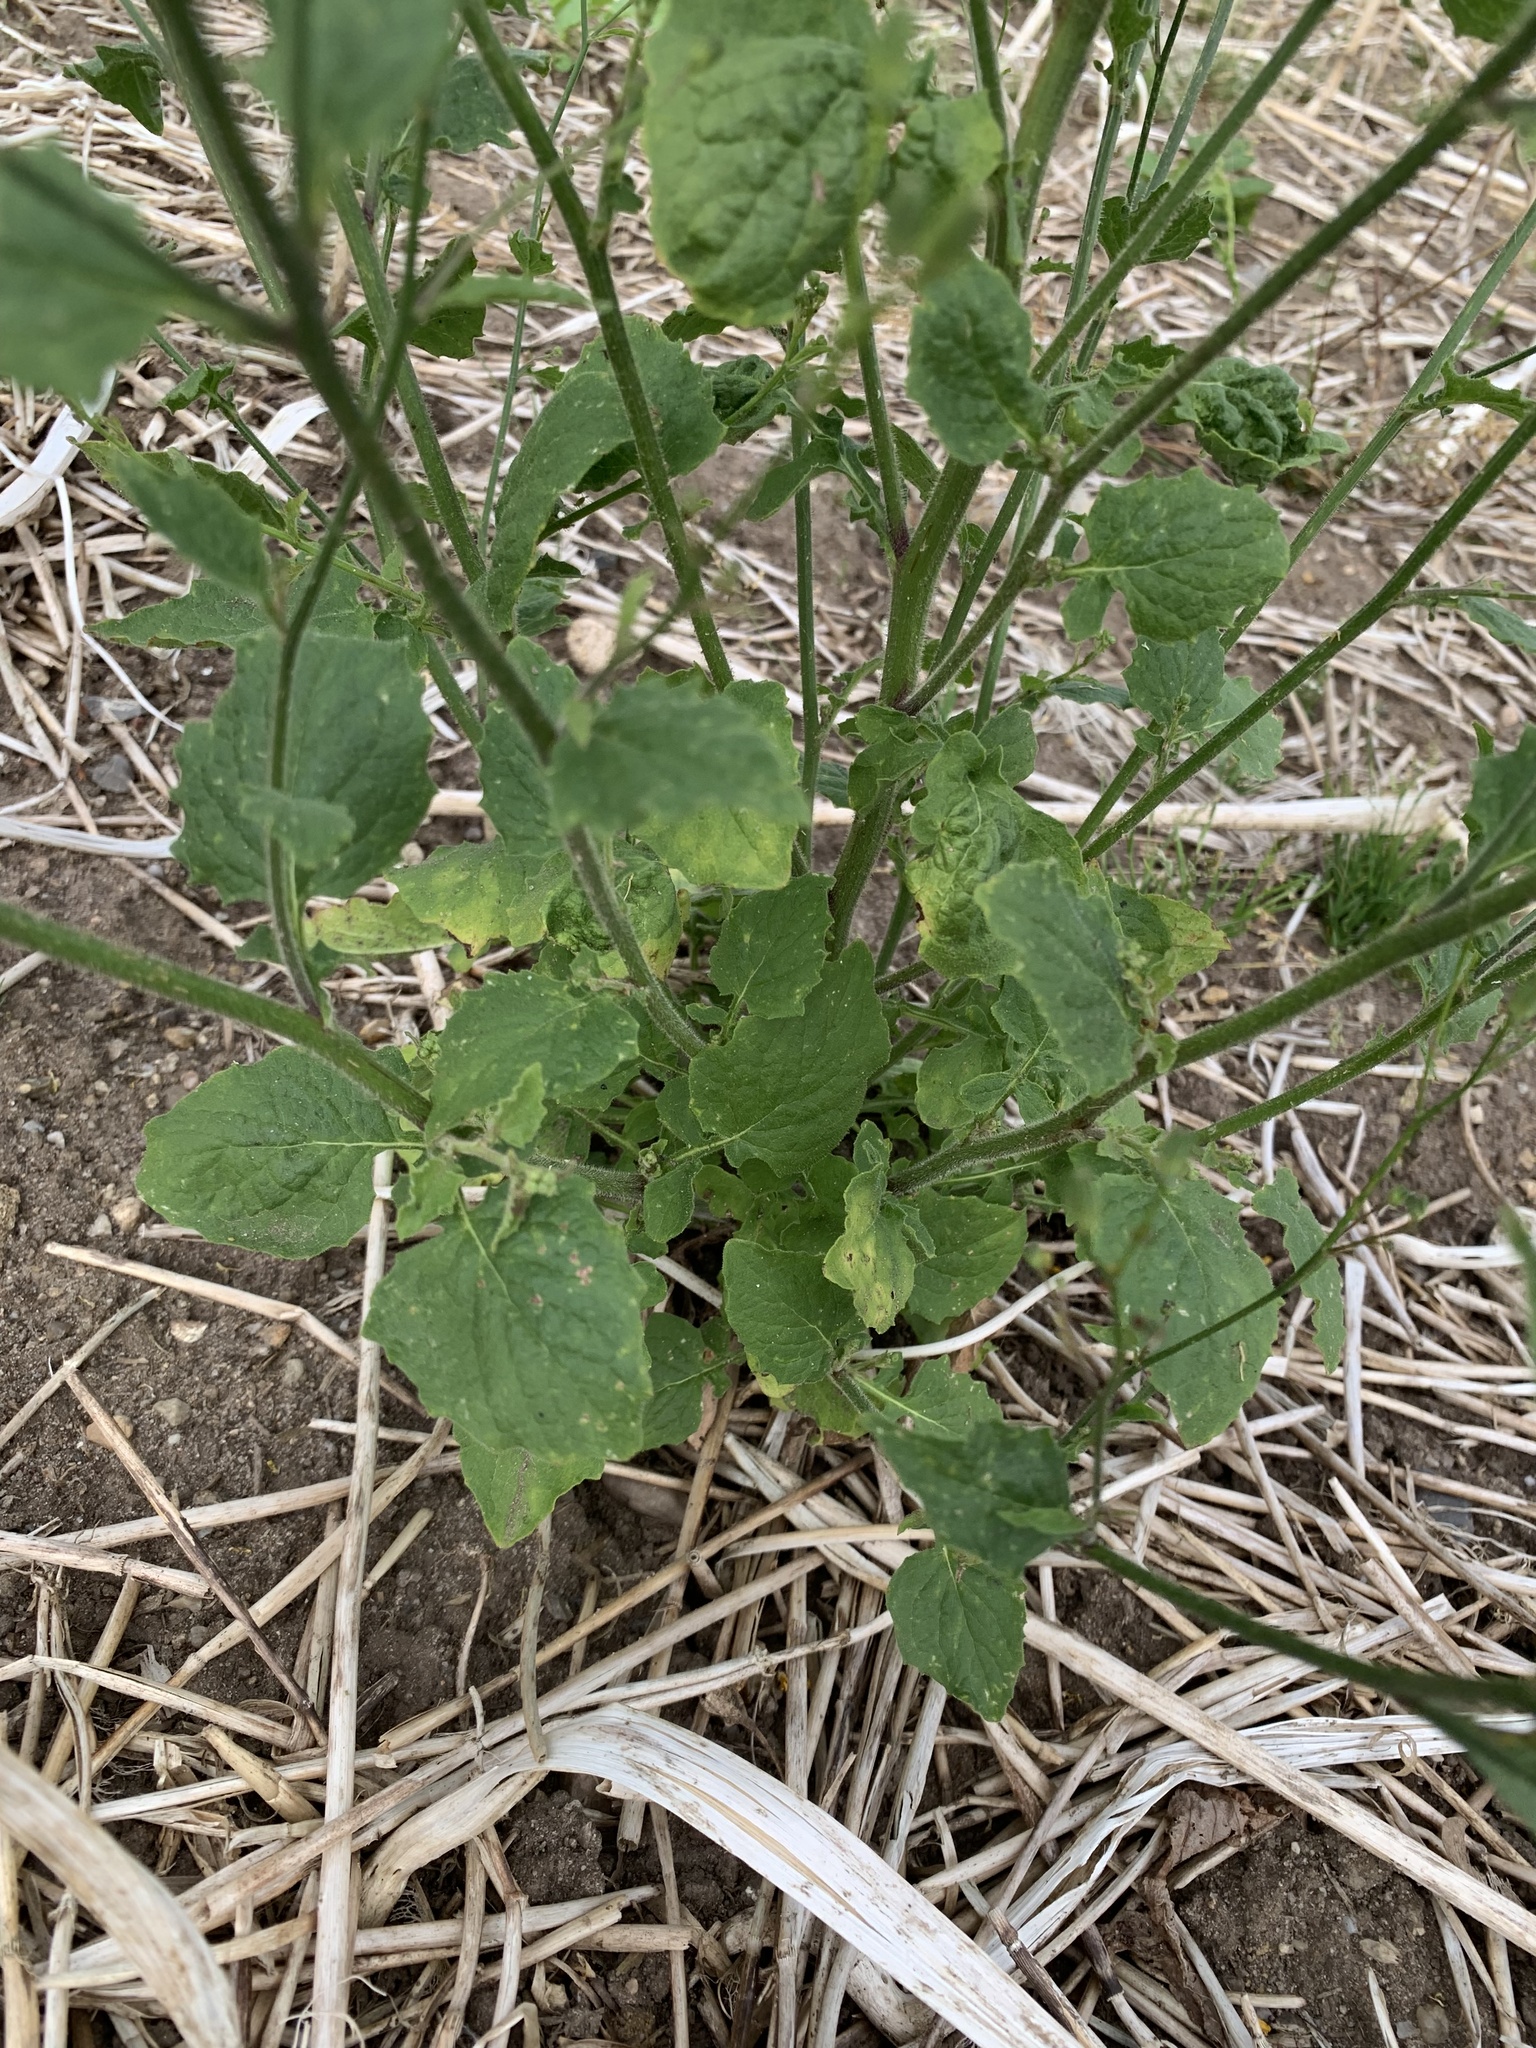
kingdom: Plantae
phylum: Tracheophyta
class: Magnoliopsida
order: Asterales
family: Asteraceae
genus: Lapsana
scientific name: Lapsana communis
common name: Nipplewort
